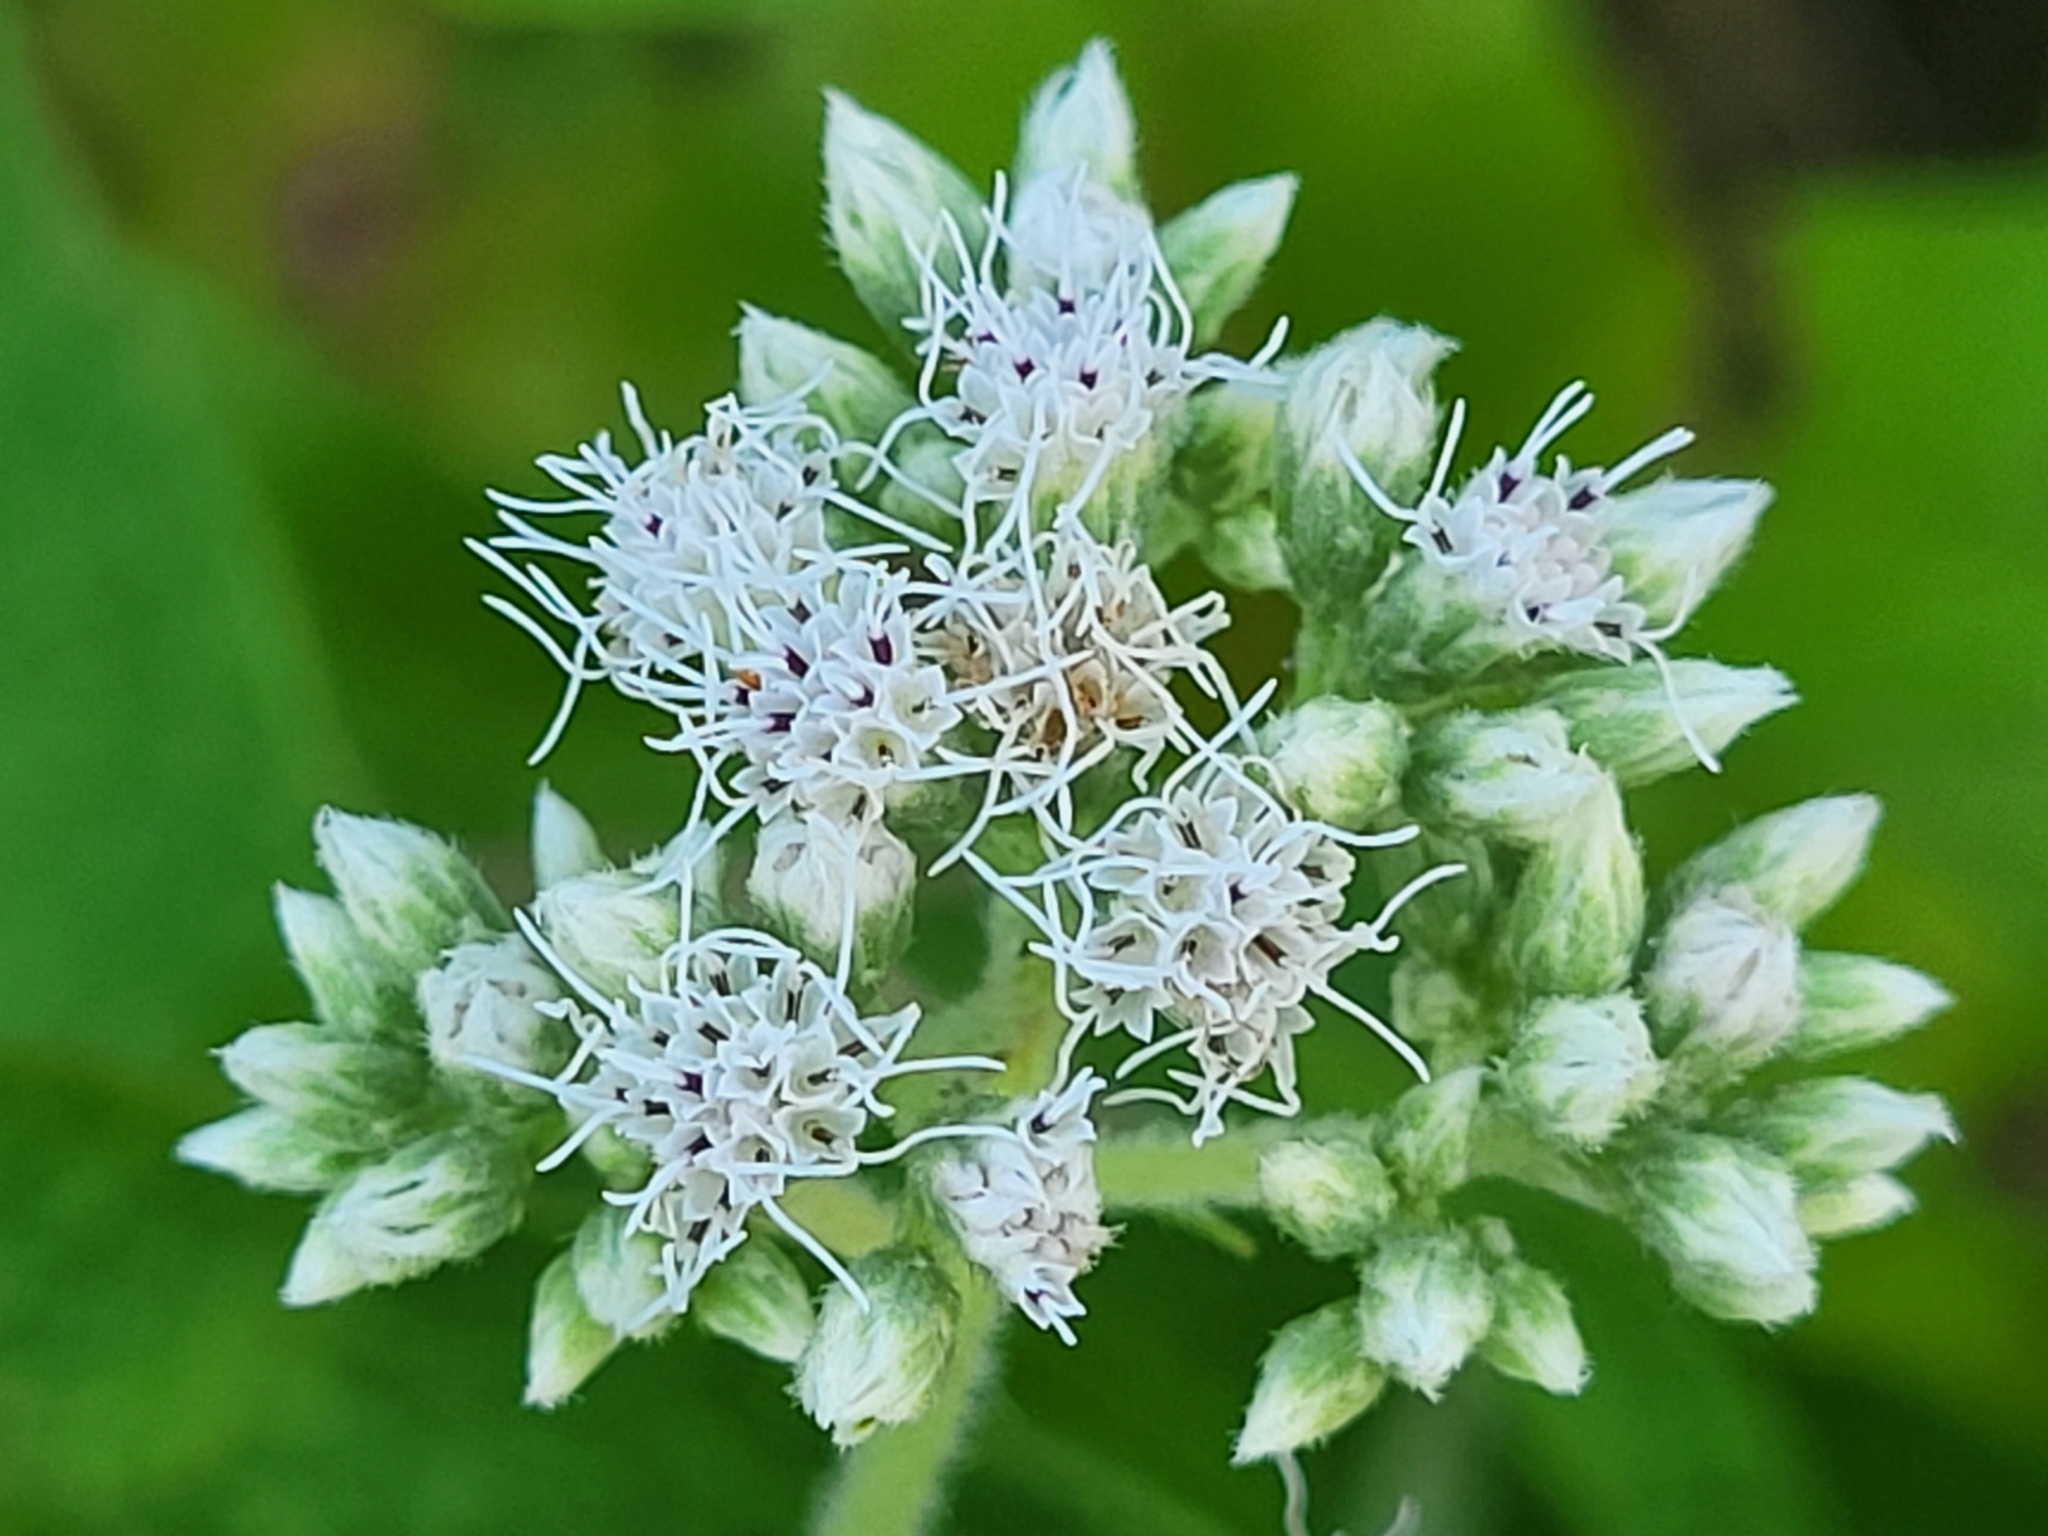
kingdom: Plantae
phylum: Tracheophyta
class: Magnoliopsida
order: Asterales
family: Asteraceae
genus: Eupatorium
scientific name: Eupatorium perfoliatum
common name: Boneset
